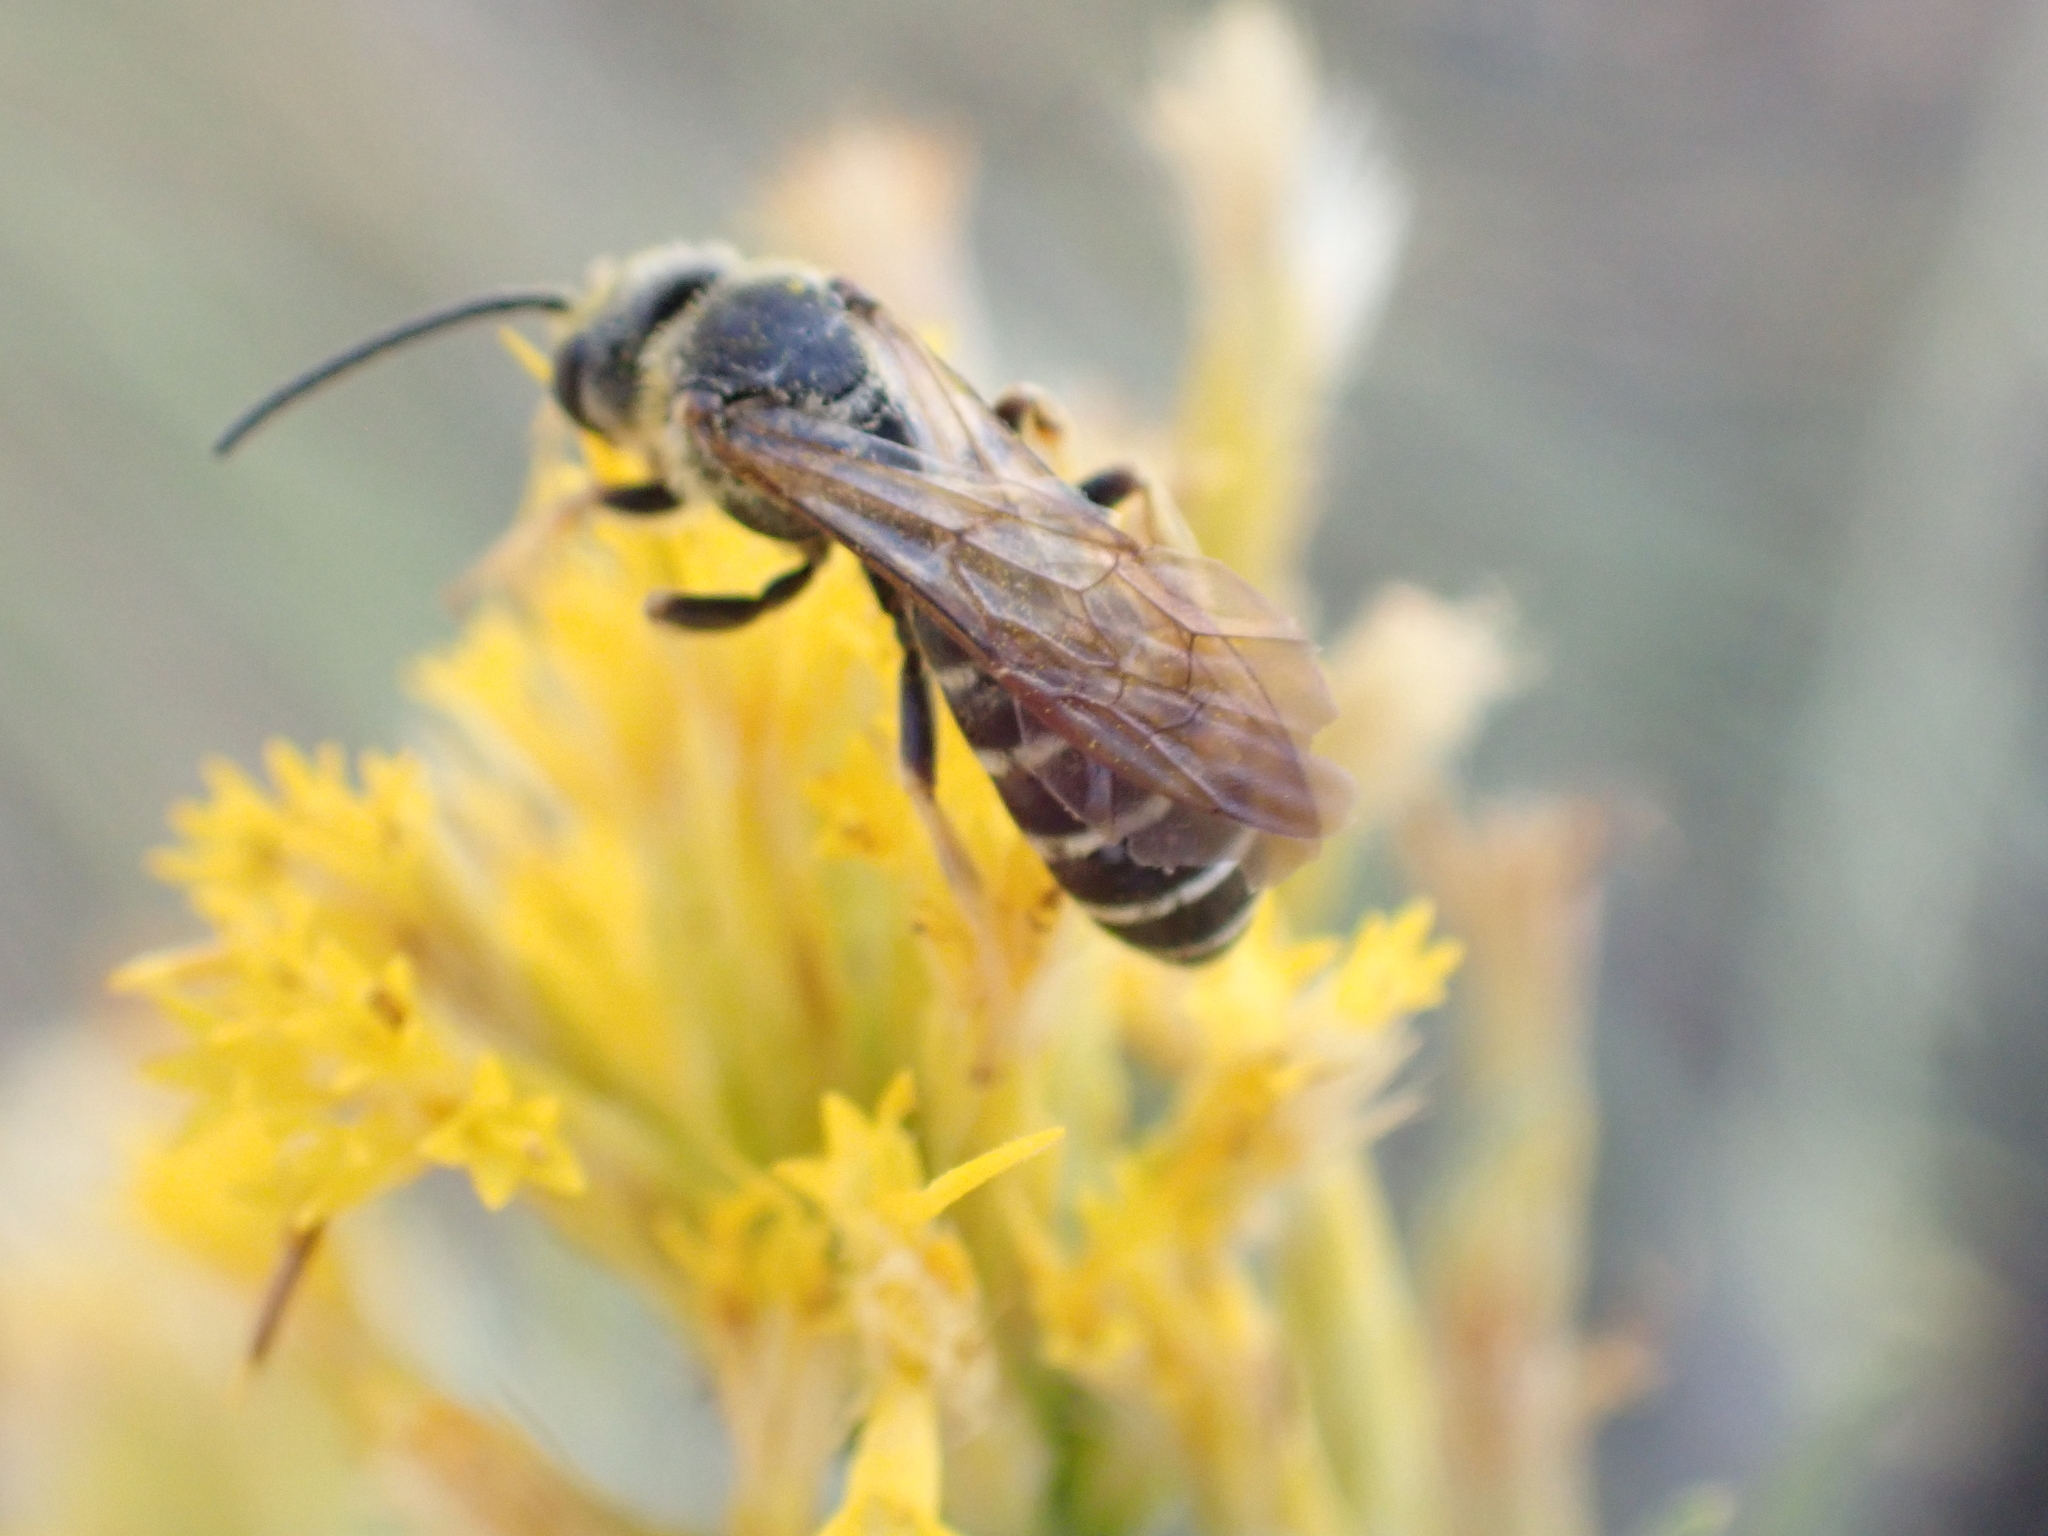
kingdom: Animalia
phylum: Arthropoda
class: Insecta
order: Hymenoptera
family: Halictidae
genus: Halictus
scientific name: Halictus farinosus
